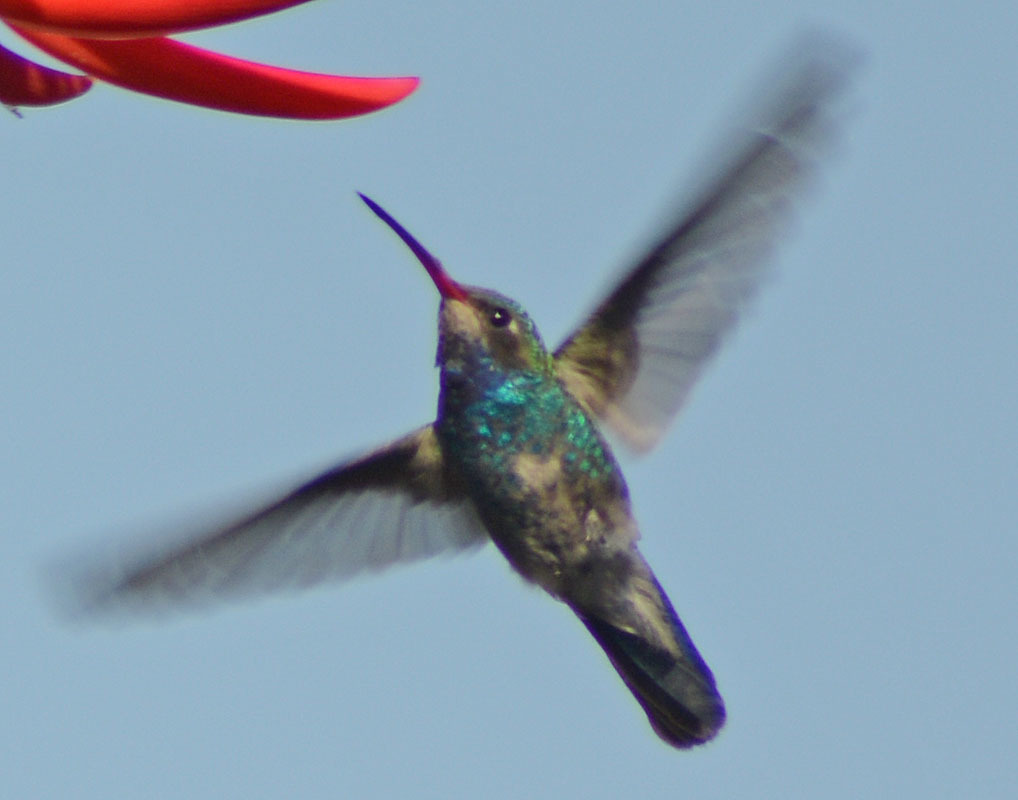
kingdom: Animalia
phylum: Chordata
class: Aves
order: Apodiformes
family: Trochilidae
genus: Cynanthus
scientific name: Cynanthus latirostris
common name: Broad-billed hummingbird
